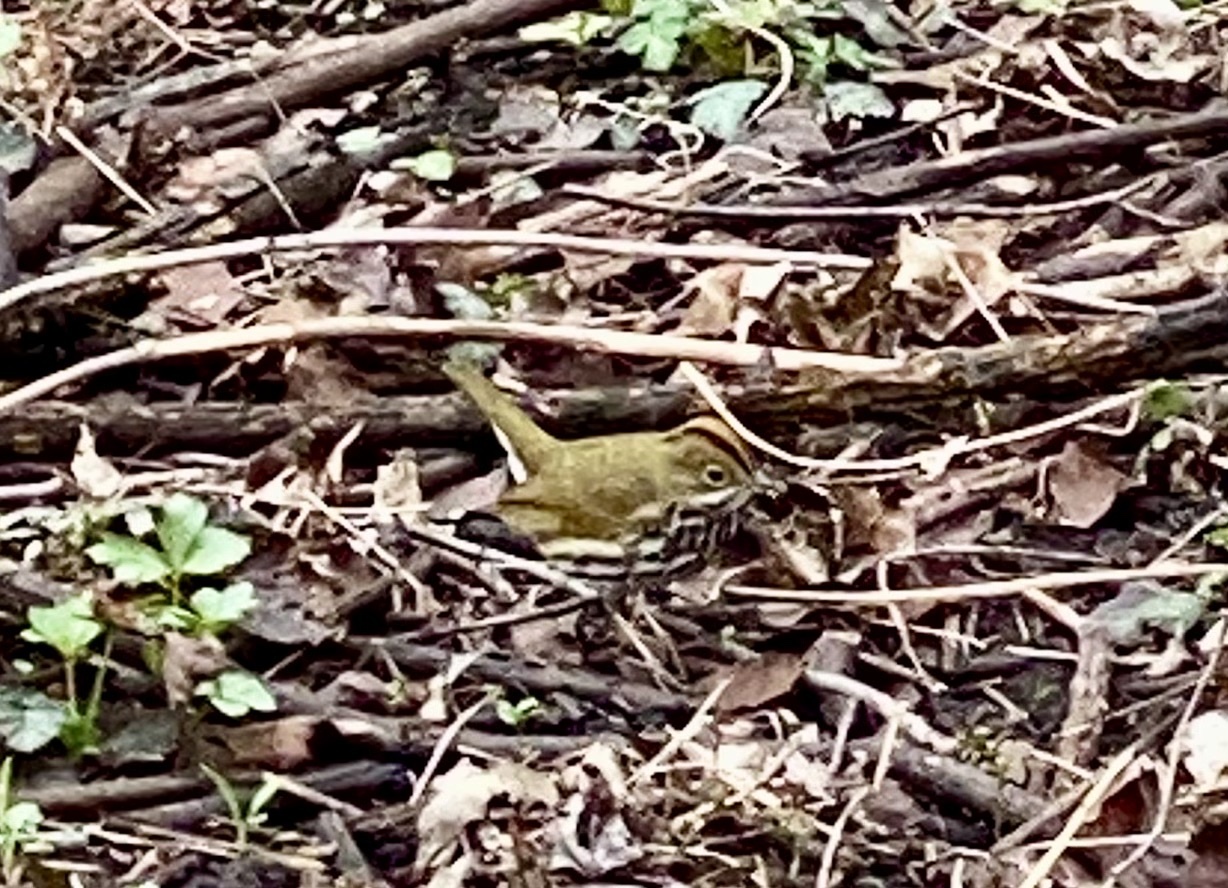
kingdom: Animalia
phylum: Chordata
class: Aves
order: Passeriformes
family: Parulidae
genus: Seiurus
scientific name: Seiurus aurocapilla
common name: Ovenbird
